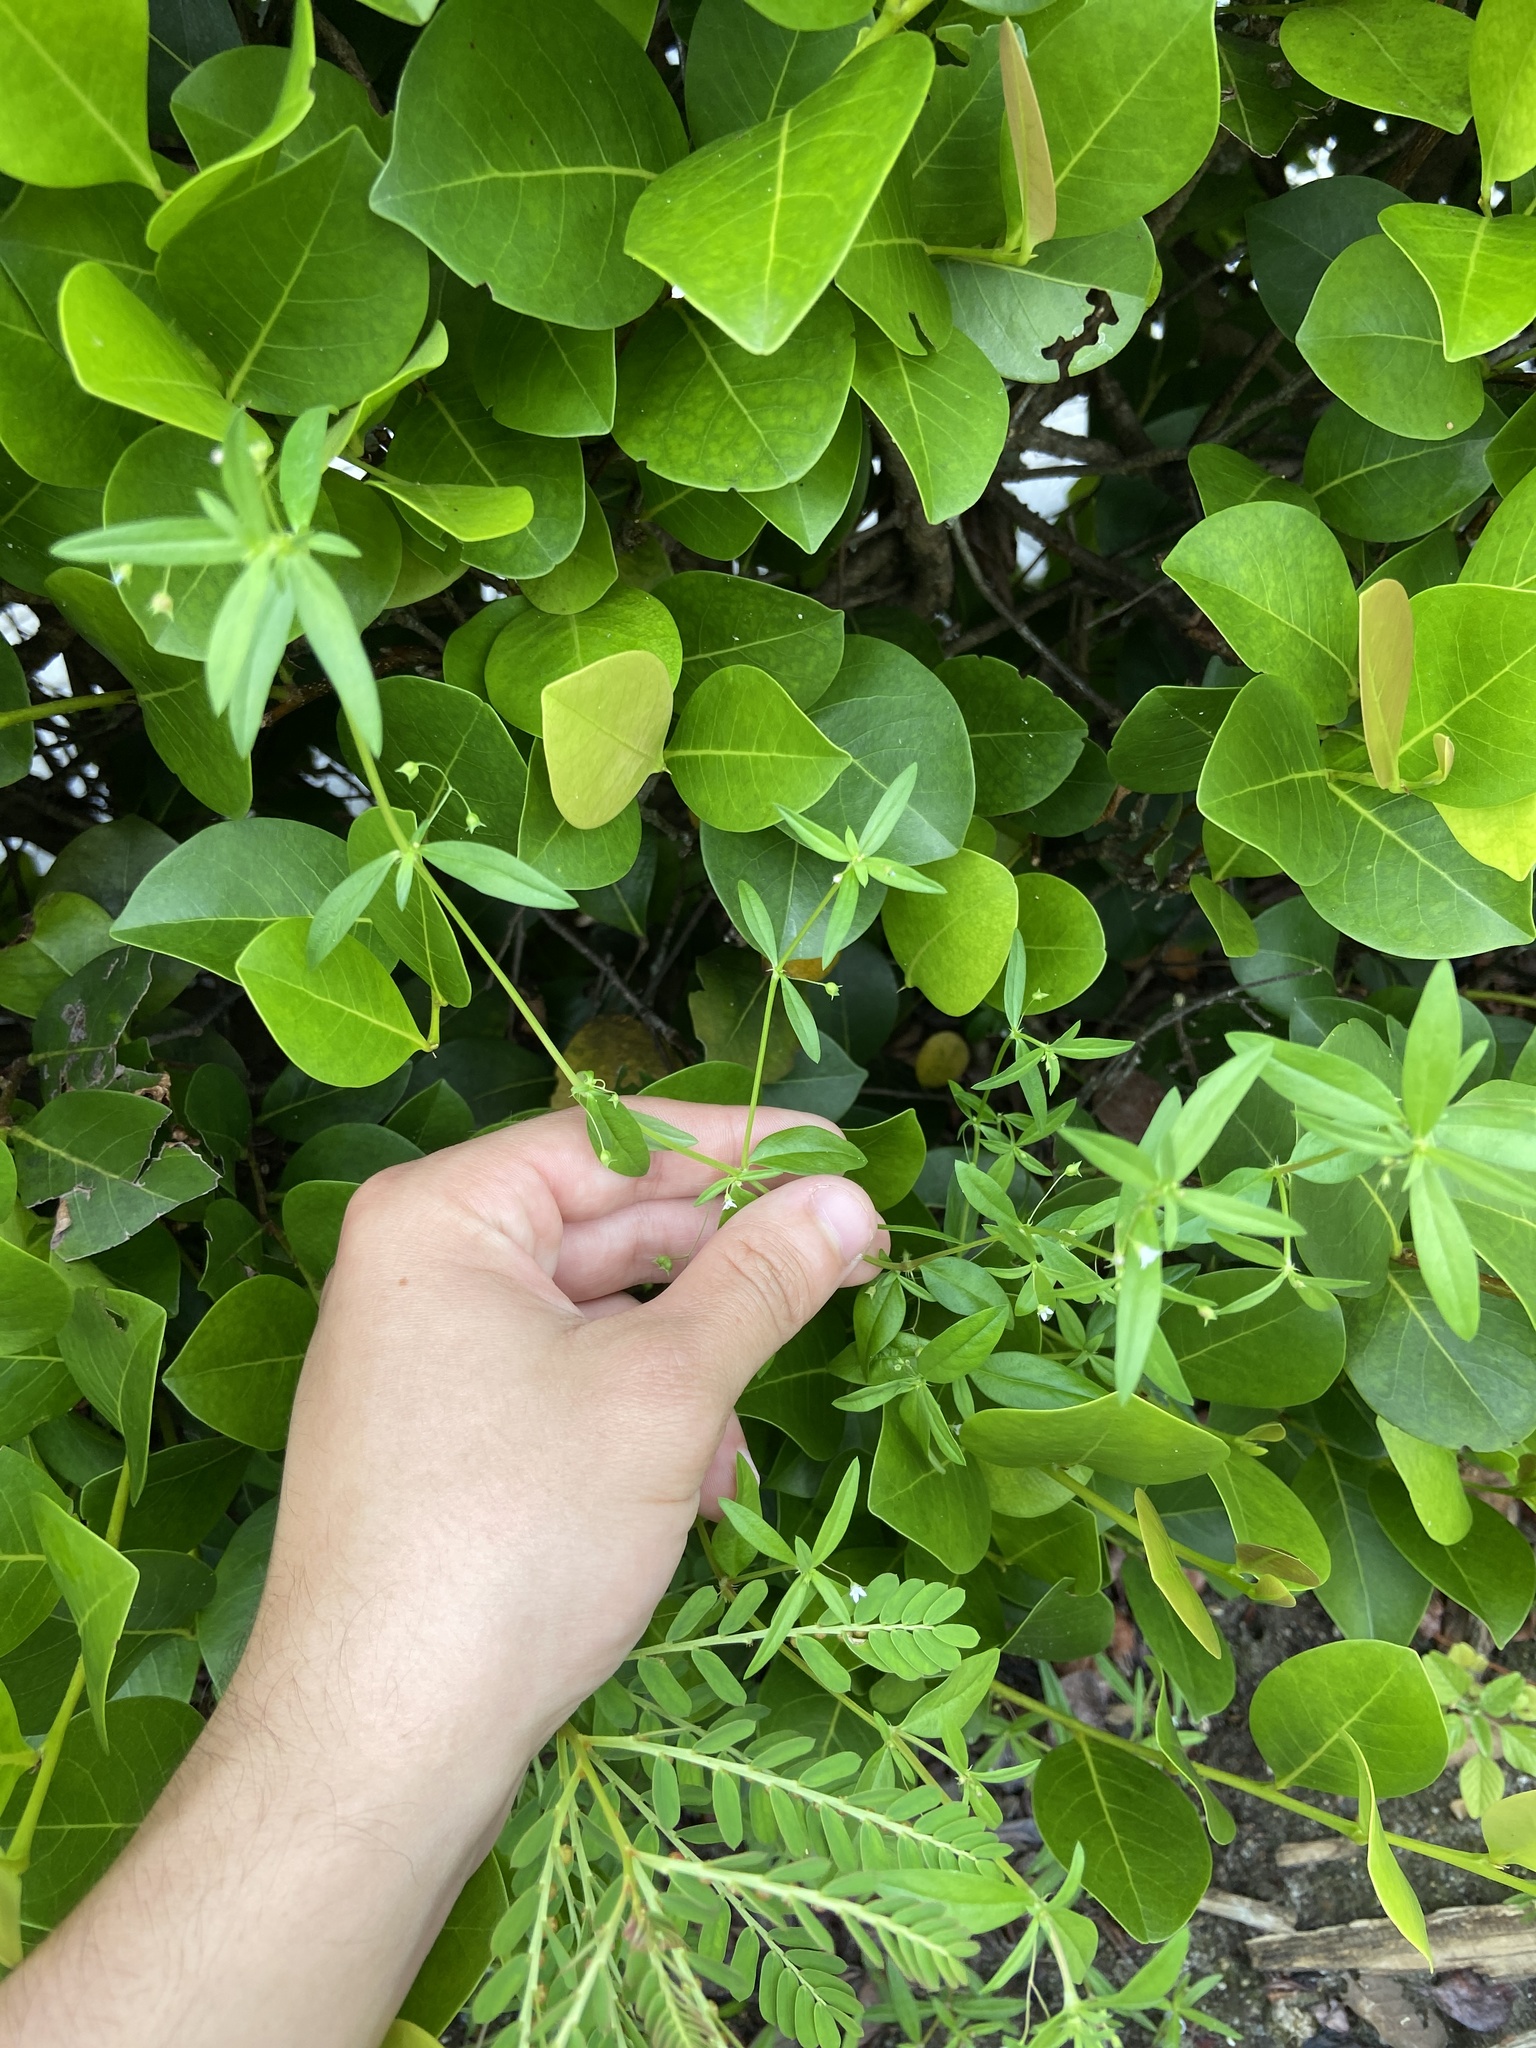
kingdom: Plantae
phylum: Tracheophyta
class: Magnoliopsida
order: Gentianales
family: Rubiaceae
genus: Oldenlandia
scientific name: Oldenlandia corymbosa
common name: Flat-top mille graines
